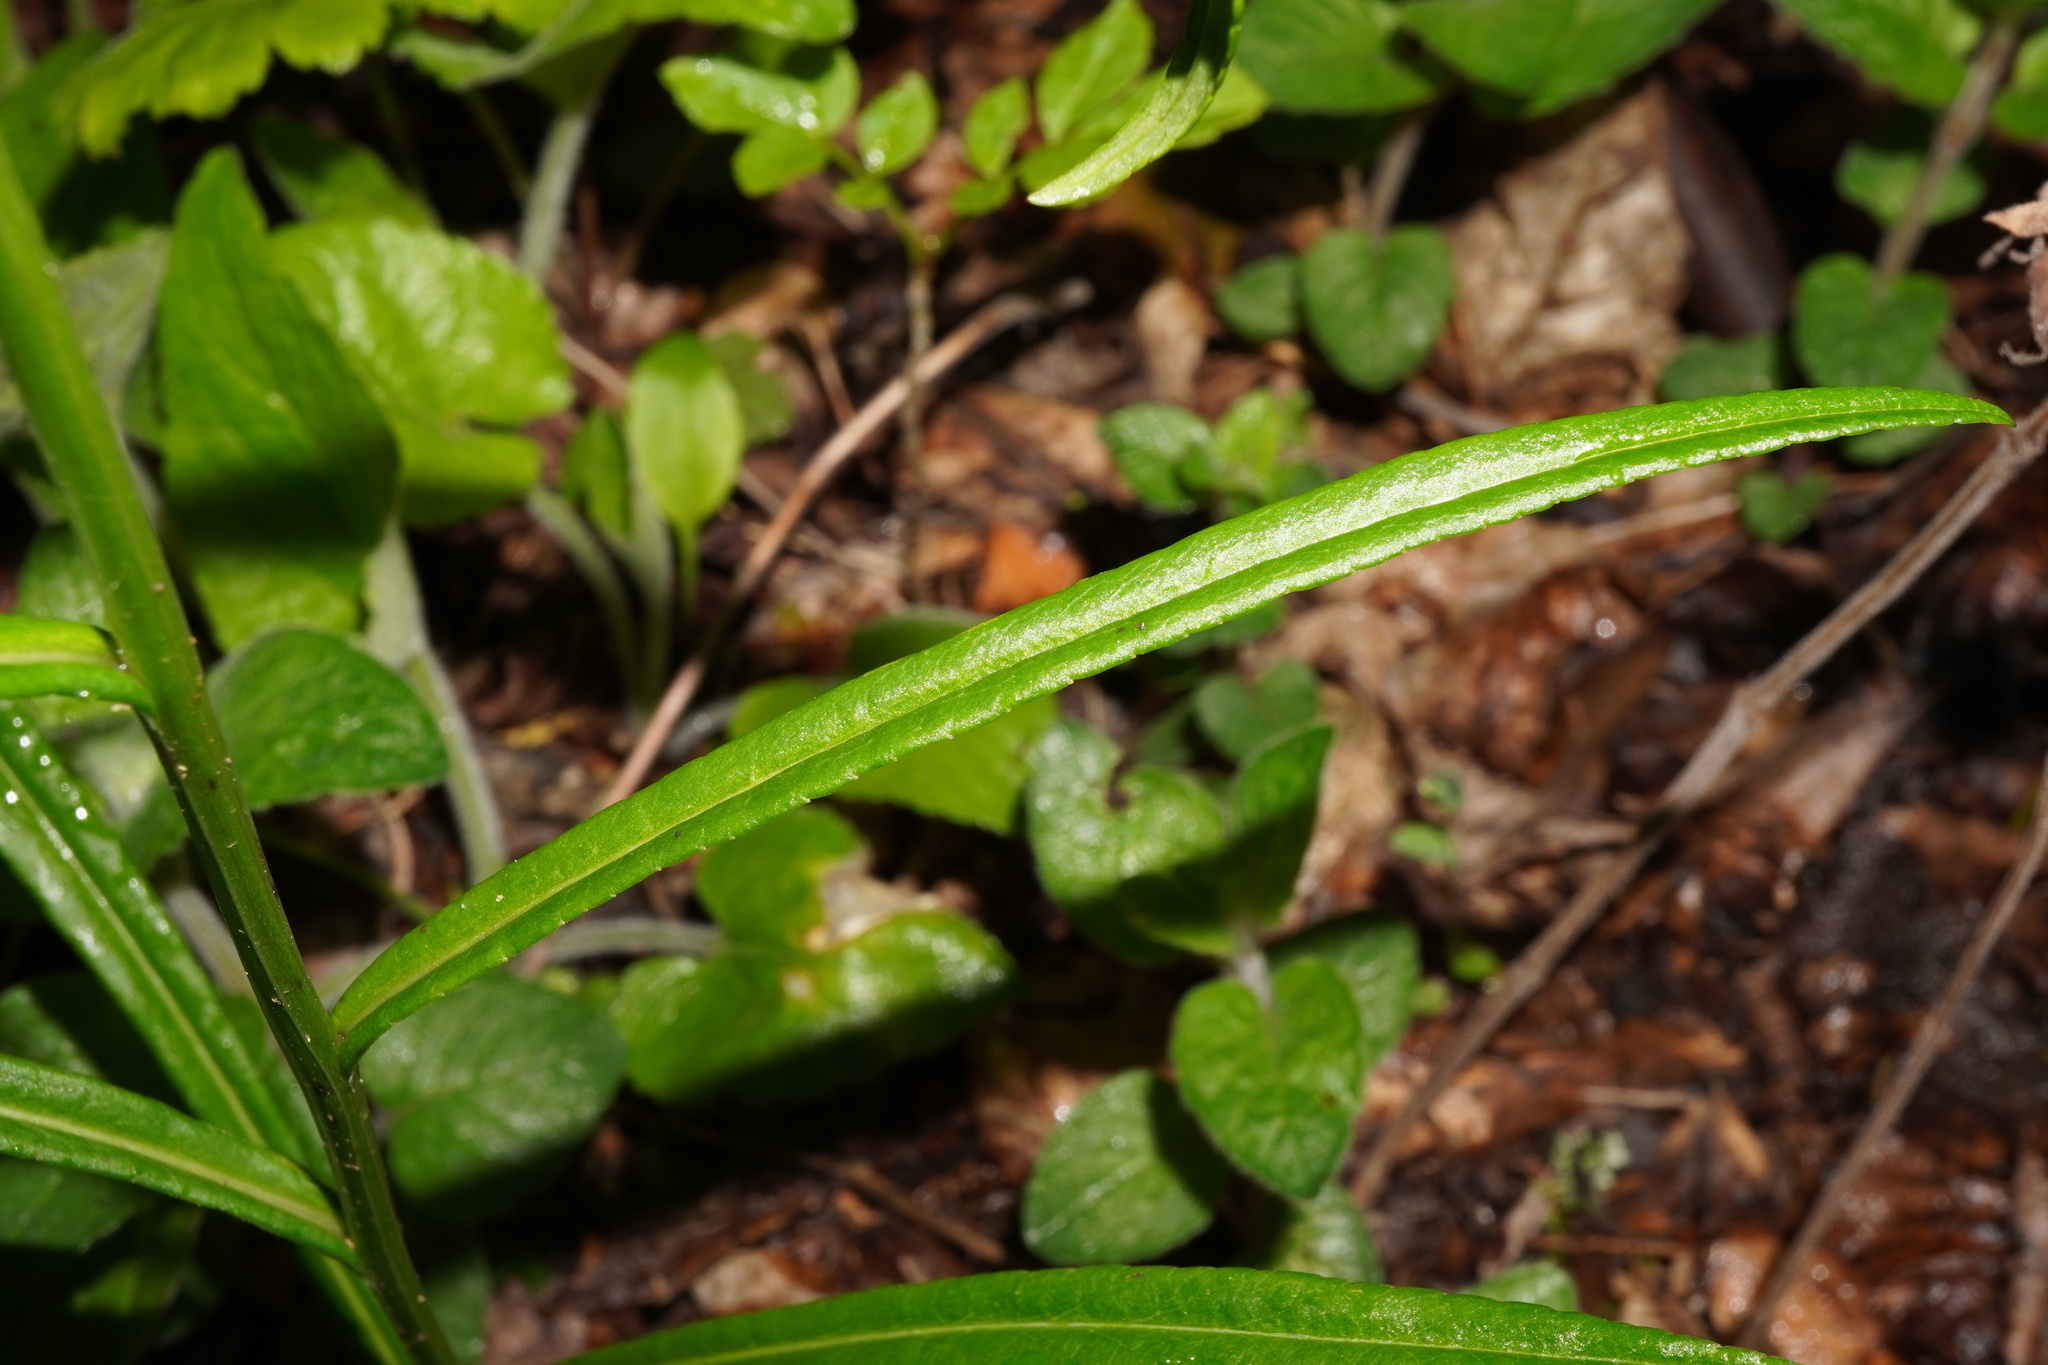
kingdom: Plantae
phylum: Tracheophyta
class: Magnoliopsida
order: Asterales
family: Campanulaceae
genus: Campanula
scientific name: Campanula persicifolia
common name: Peach-leaved bellflower
